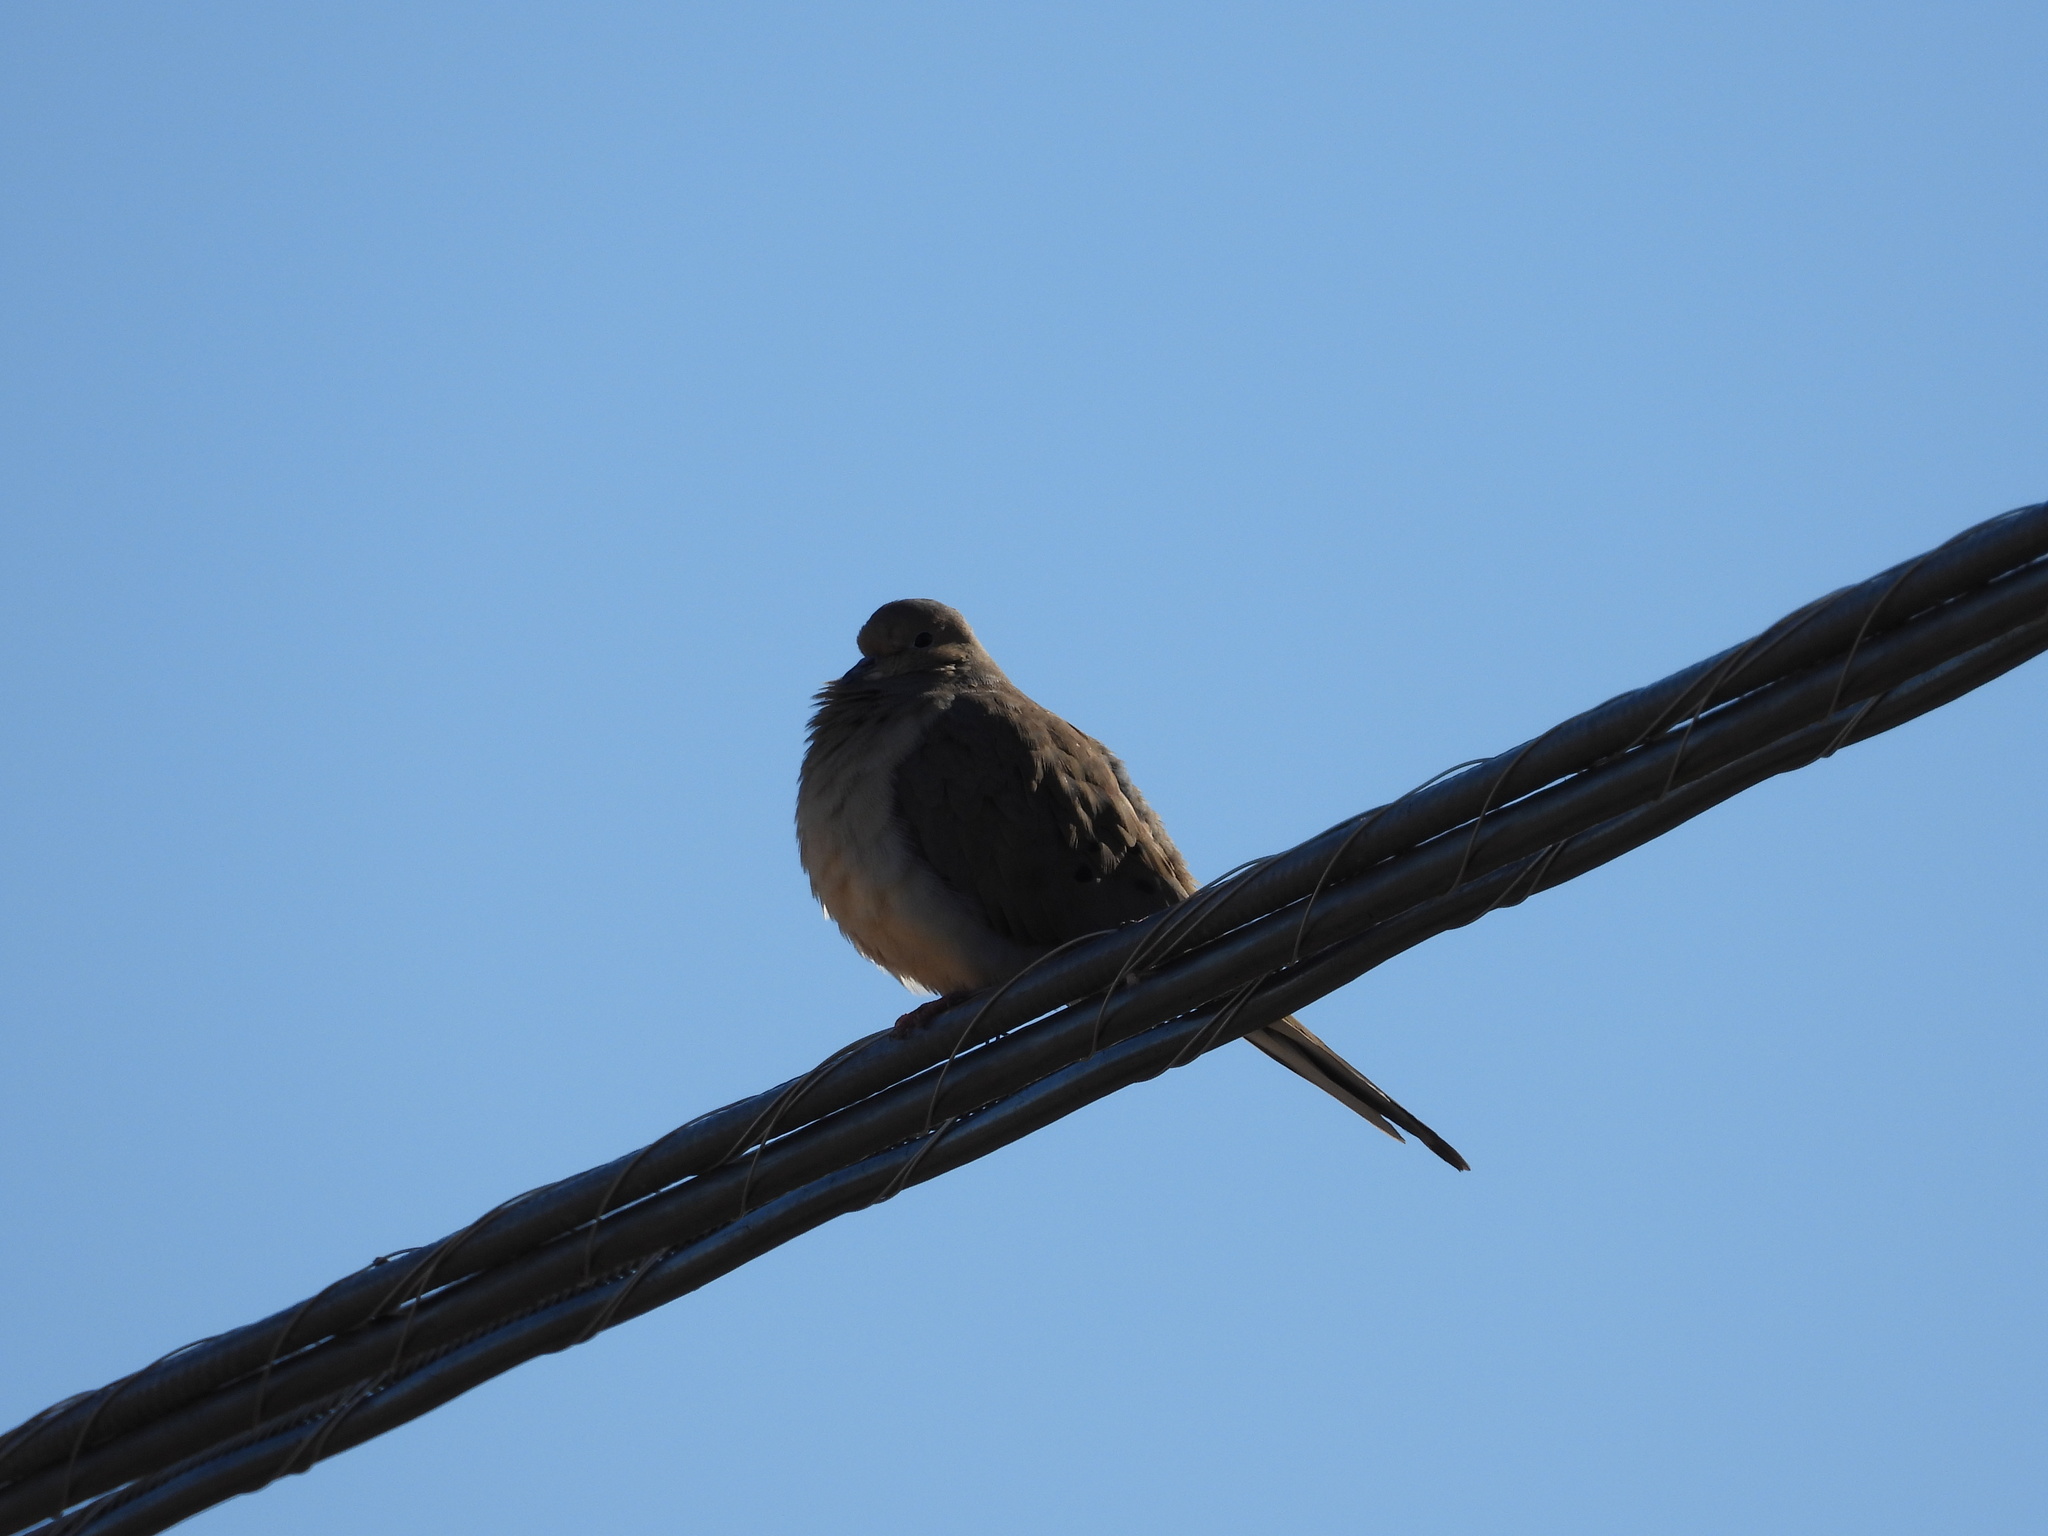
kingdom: Animalia
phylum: Chordata
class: Aves
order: Columbiformes
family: Columbidae
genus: Zenaida
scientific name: Zenaida macroura
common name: Mourning dove
